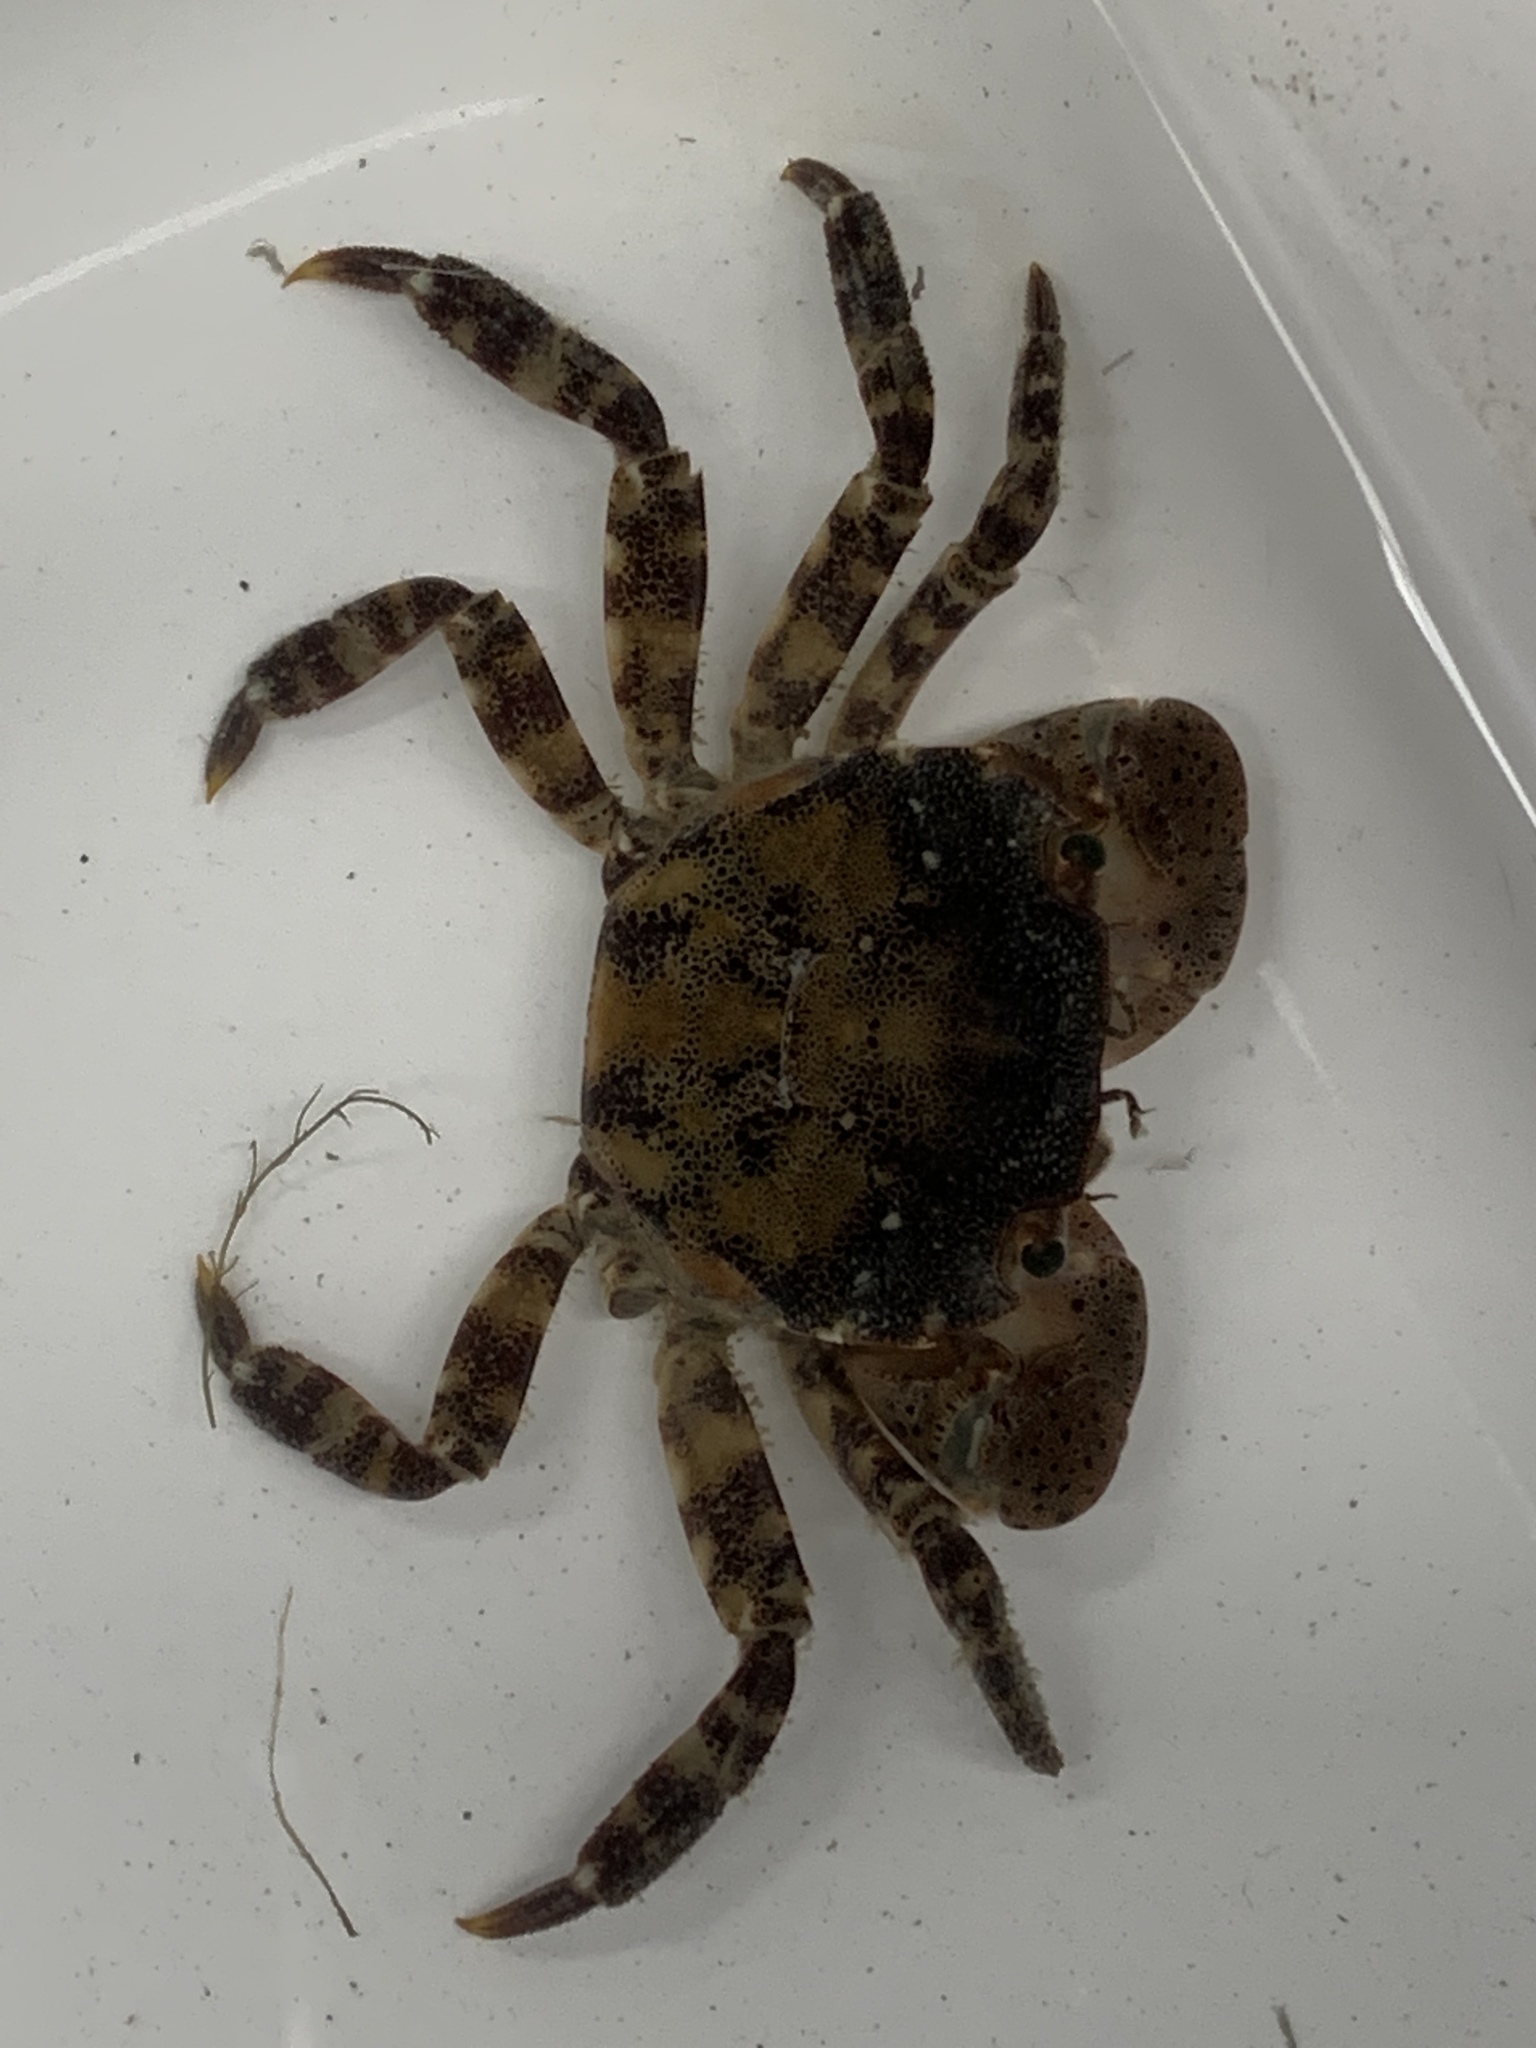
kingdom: Animalia
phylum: Arthropoda
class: Malacostraca
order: Decapoda
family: Varunidae
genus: Hemigrapsus
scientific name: Hemigrapsus sanguineus
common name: Asian shore crab
